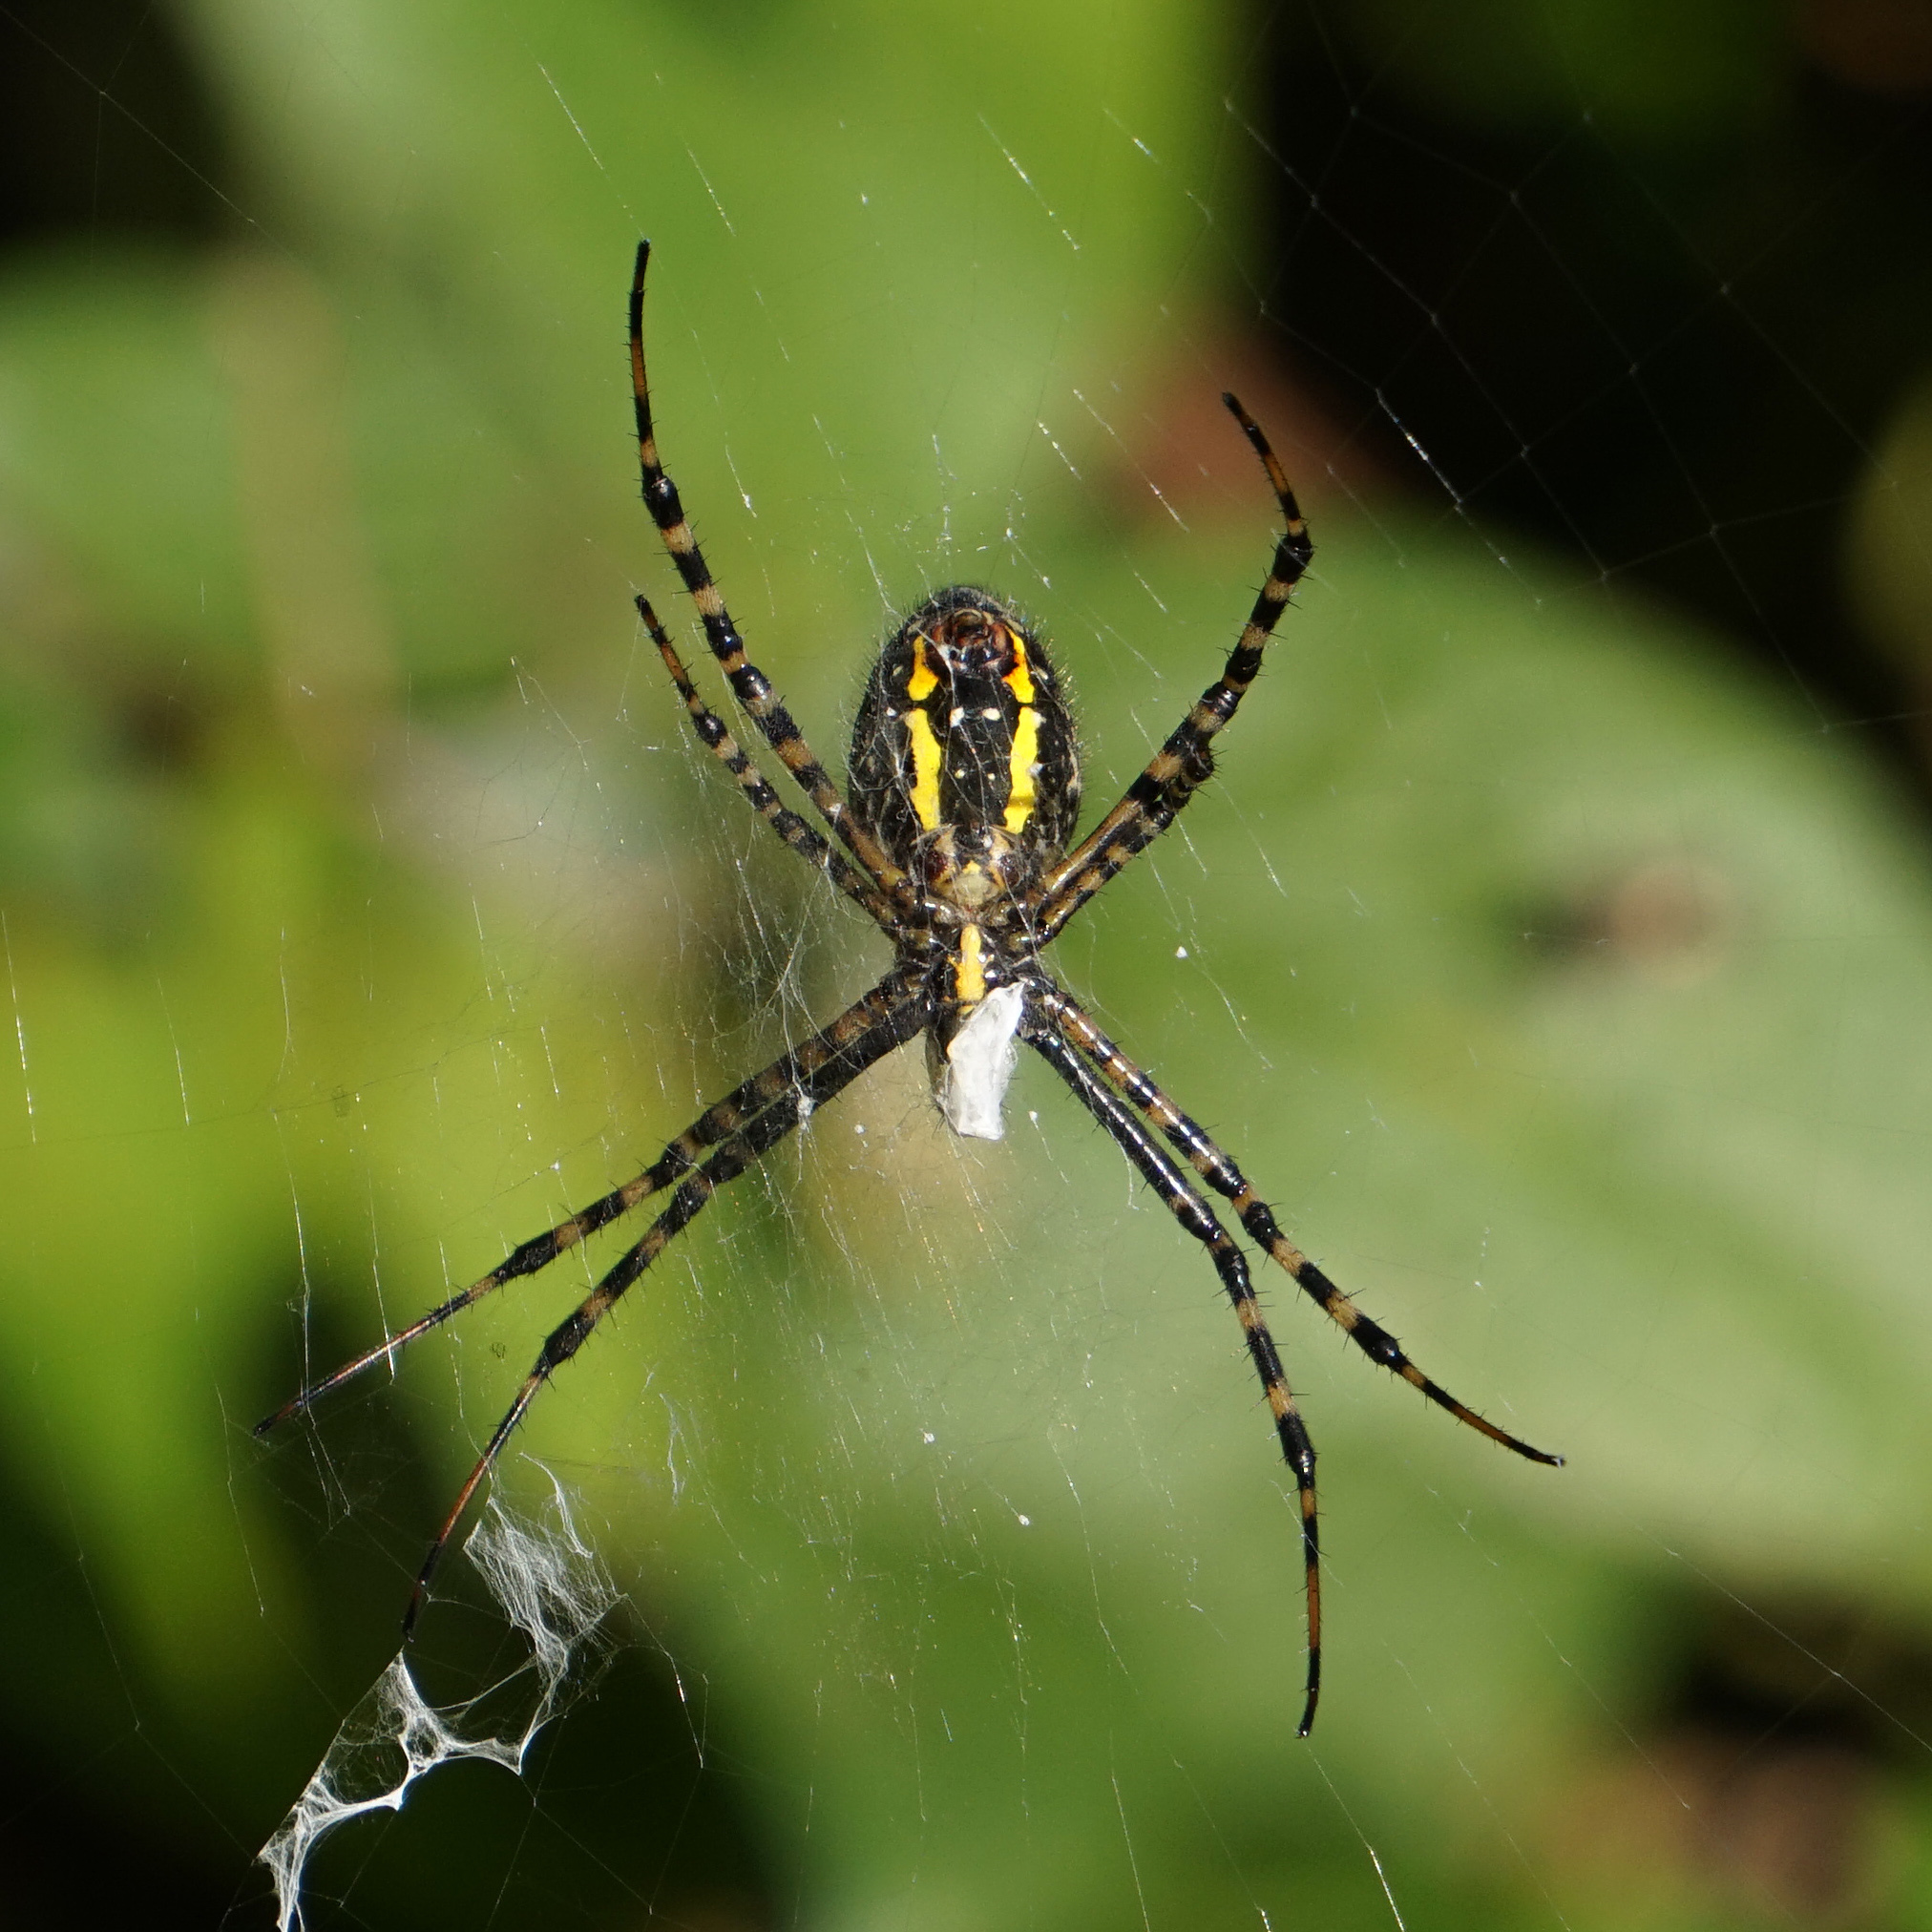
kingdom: Animalia
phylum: Arthropoda
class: Arachnida
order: Araneae
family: Araneidae
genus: Argiope
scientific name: Argiope trifasciata
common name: Banded garden spider
